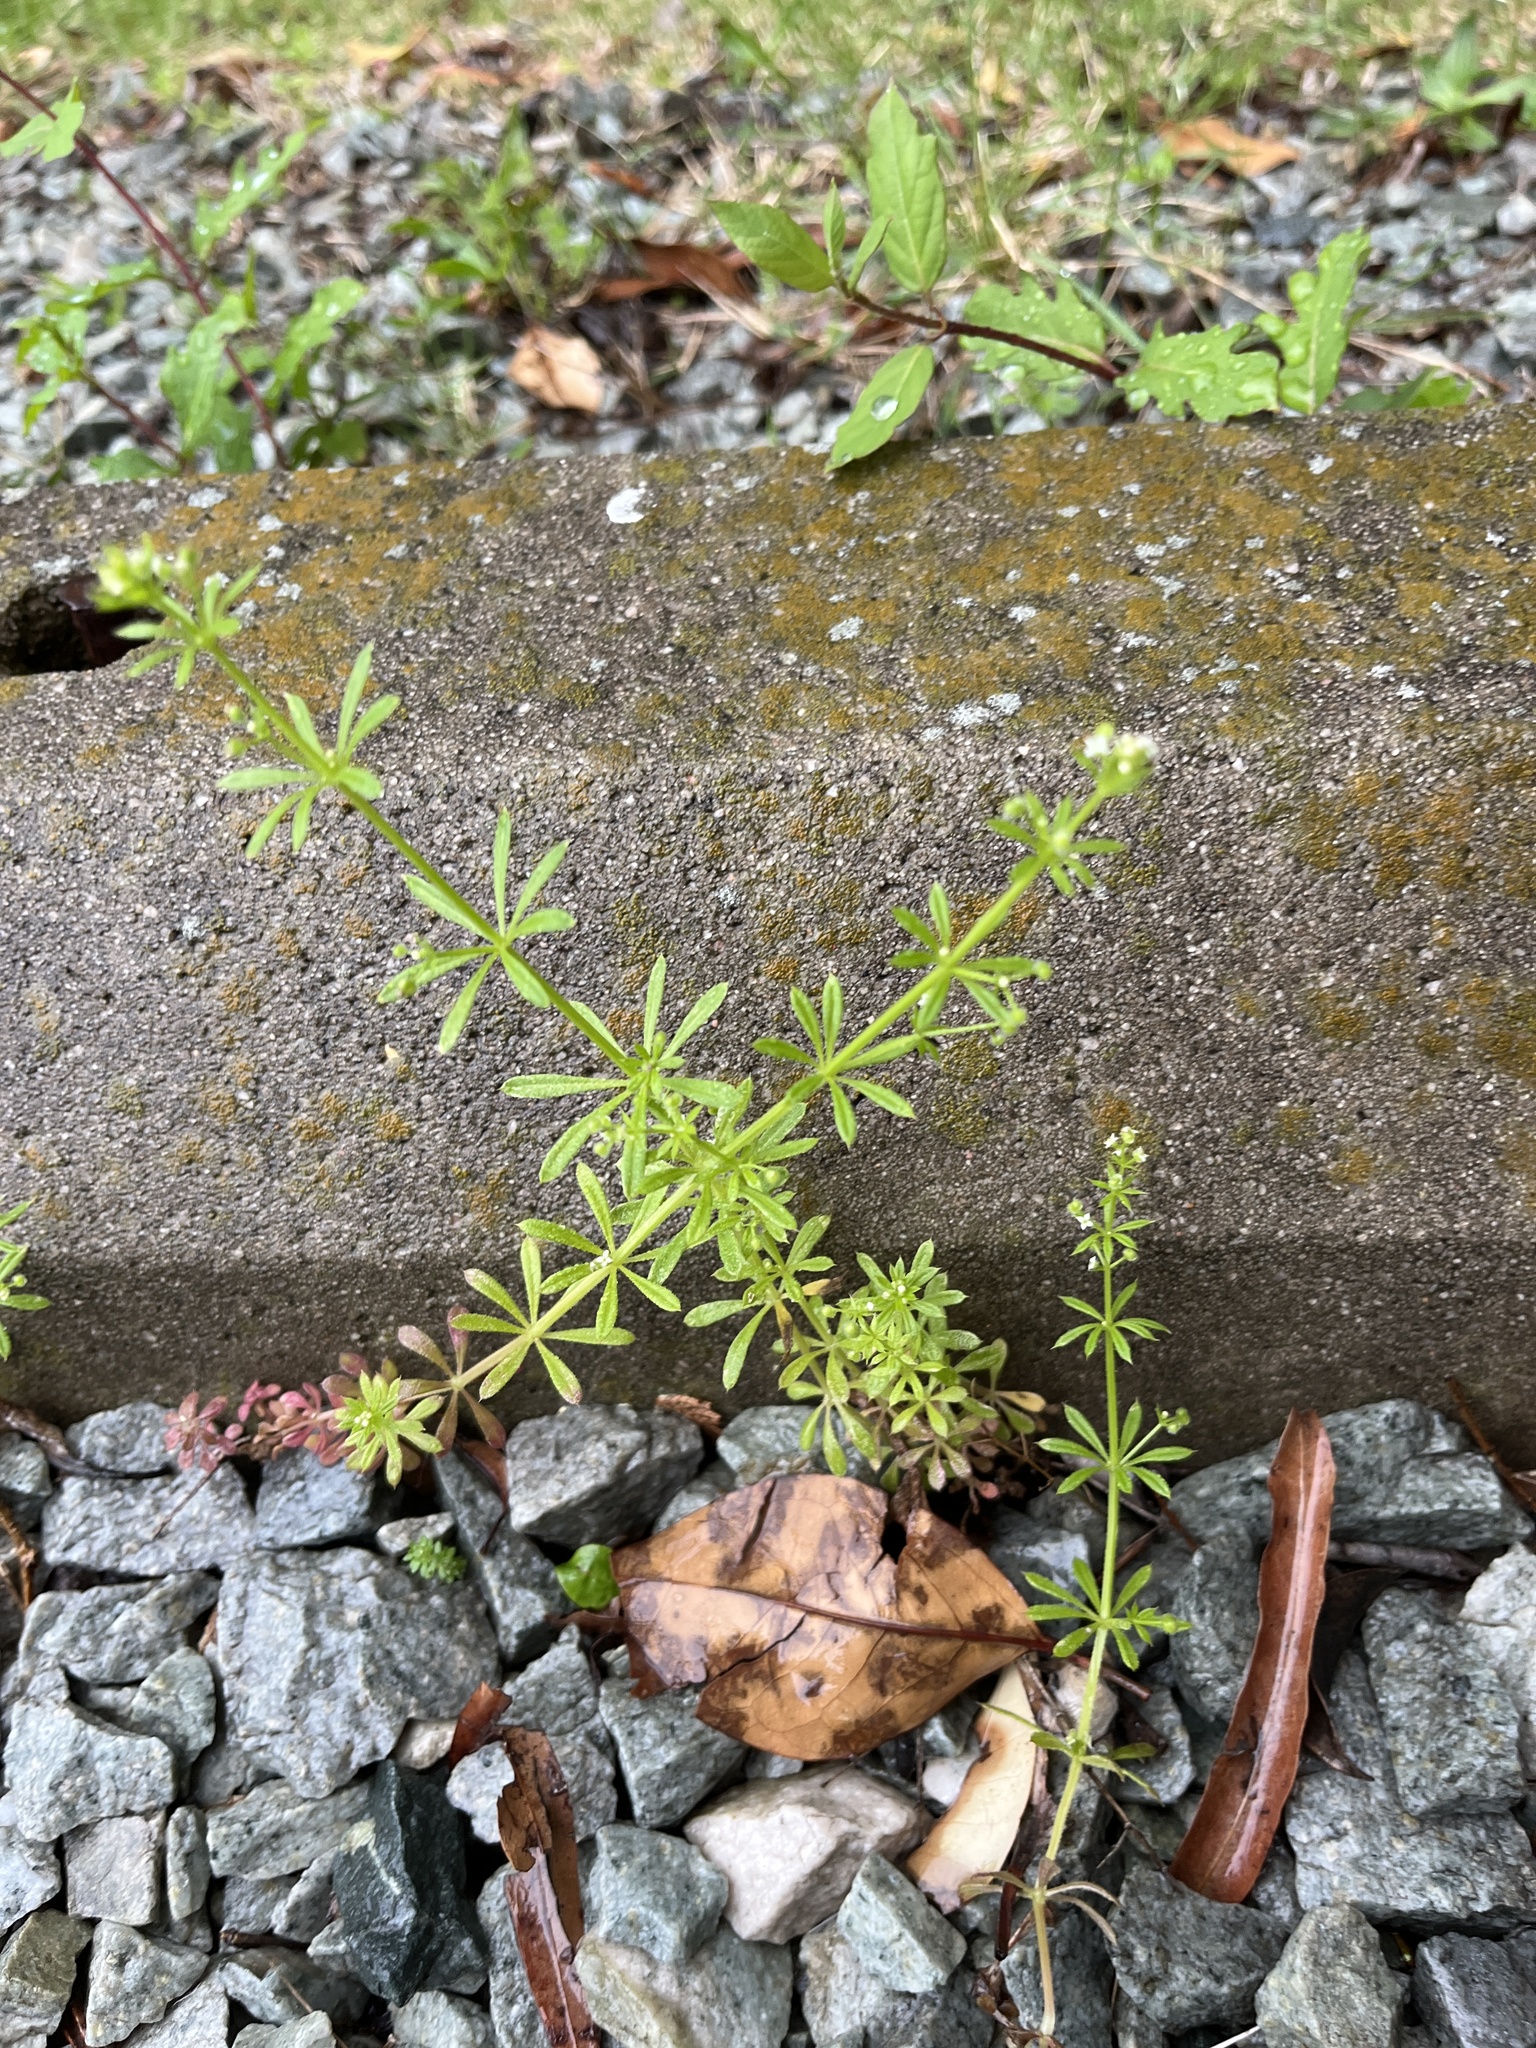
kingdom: Plantae
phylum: Tracheophyta
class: Magnoliopsida
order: Gentianales
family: Rubiaceae
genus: Galium
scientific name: Galium aparine
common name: Cleavers
